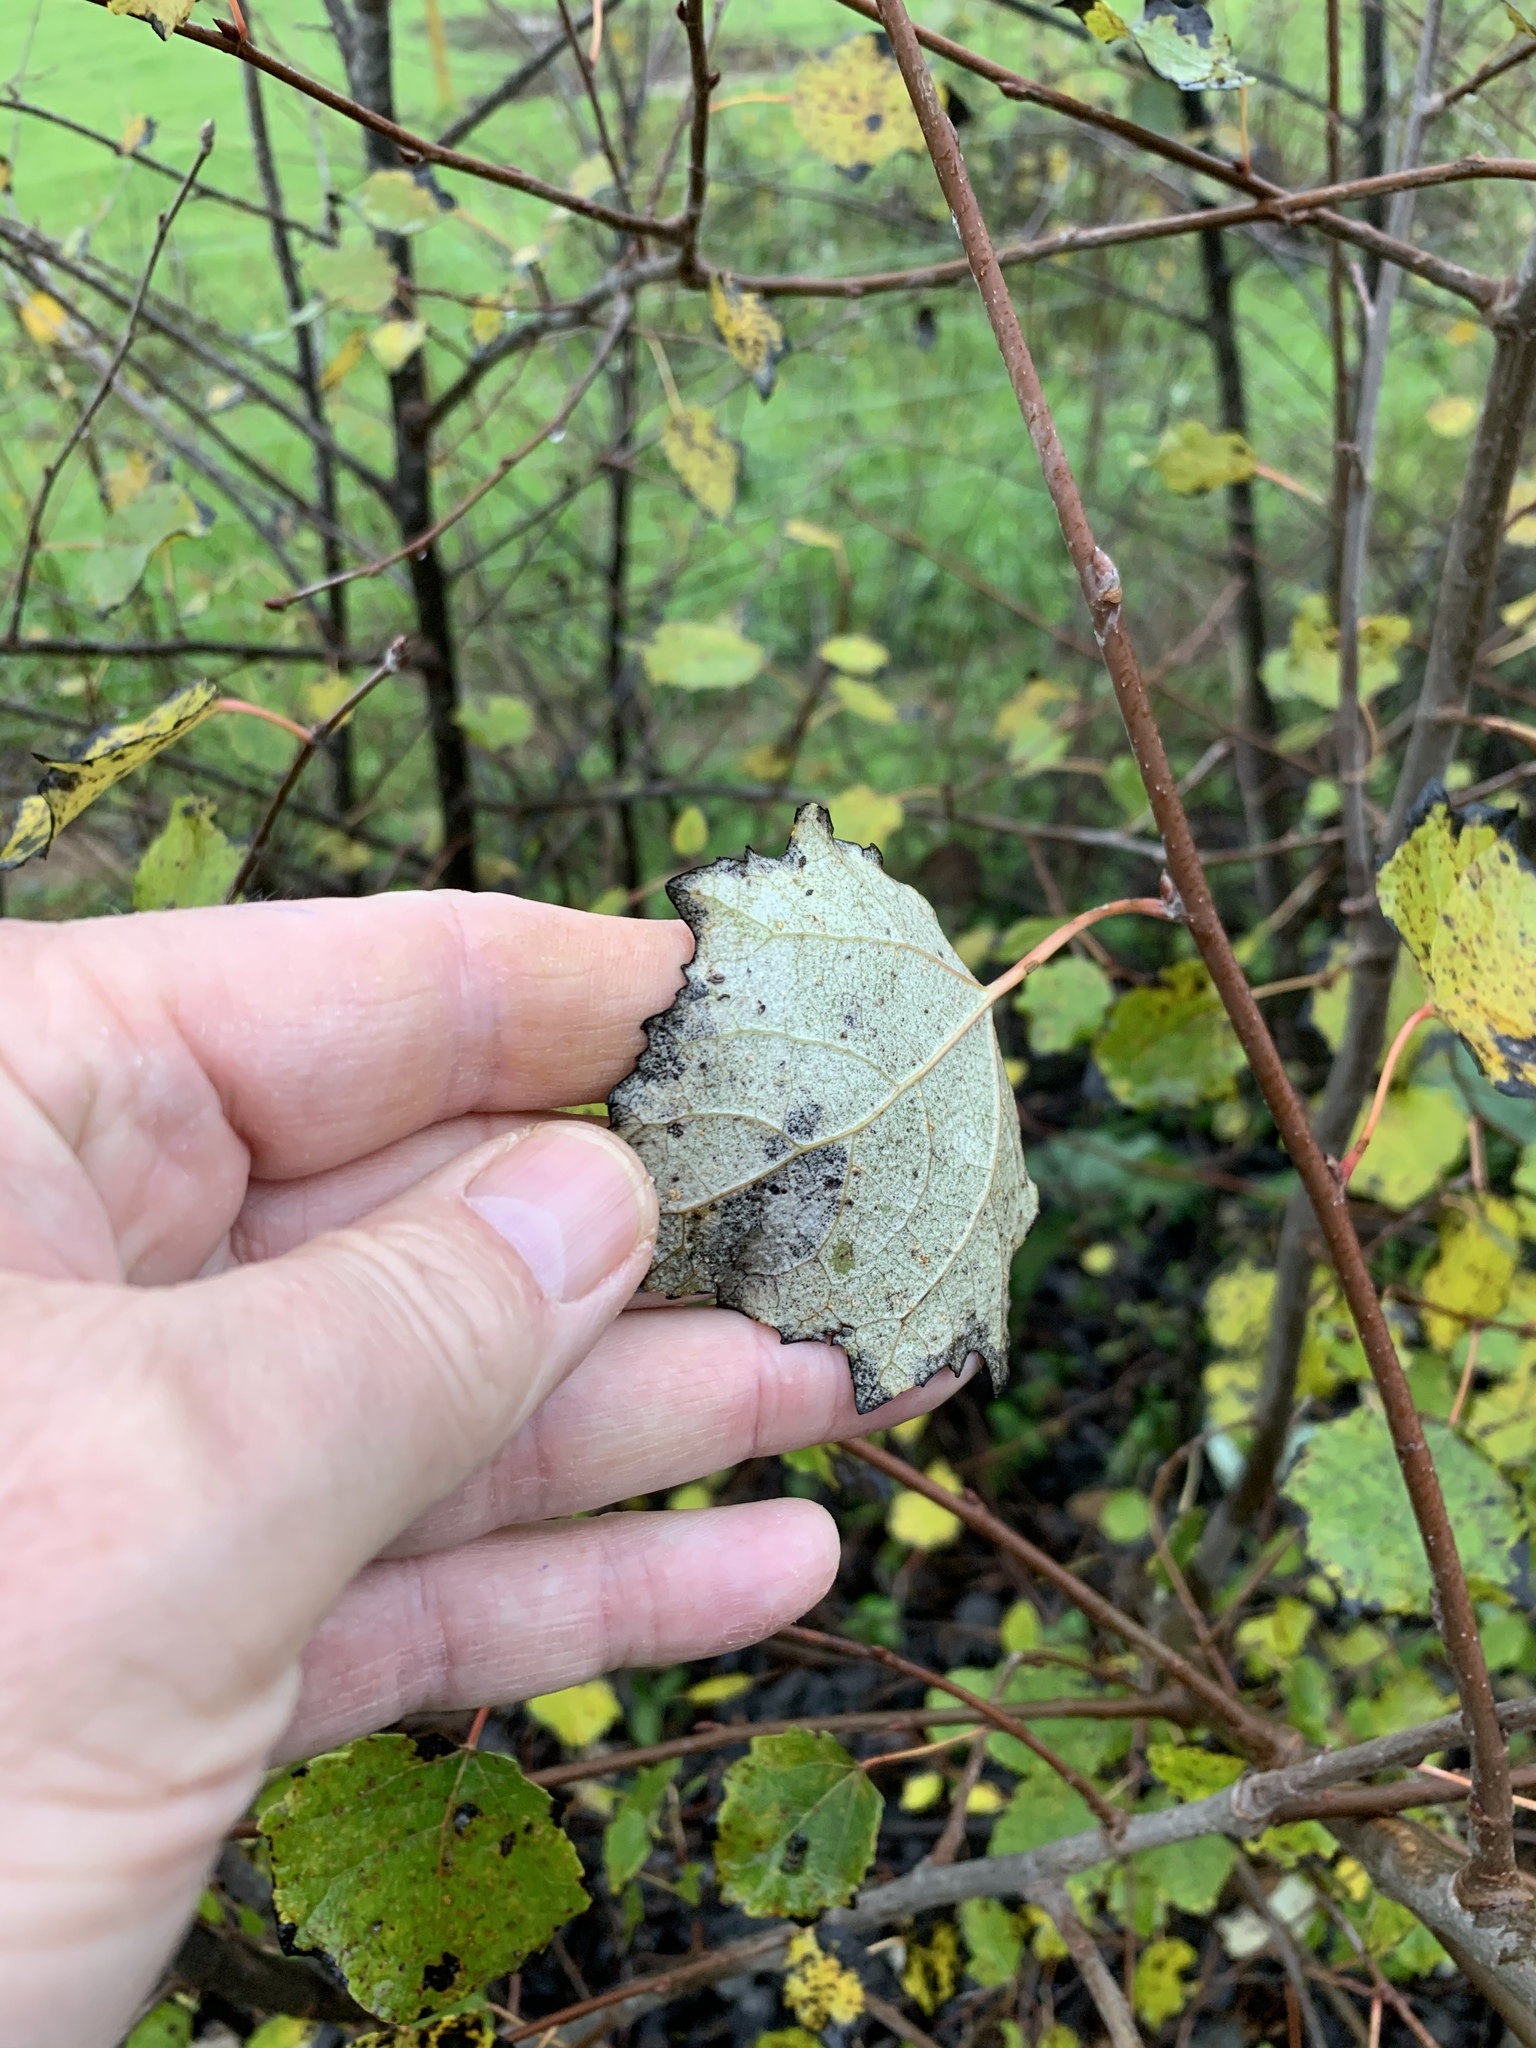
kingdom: Plantae
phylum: Tracheophyta
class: Magnoliopsida
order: Malpighiales
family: Salicaceae
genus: Populus
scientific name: Populus canescens
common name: Gray poplar
